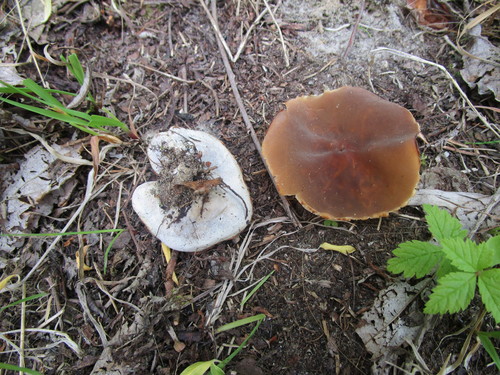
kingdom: Fungi
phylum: Ascomycota
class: Pezizomycetes
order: Pezizales
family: Pezizaceae
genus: Peziza
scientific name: Peziza
